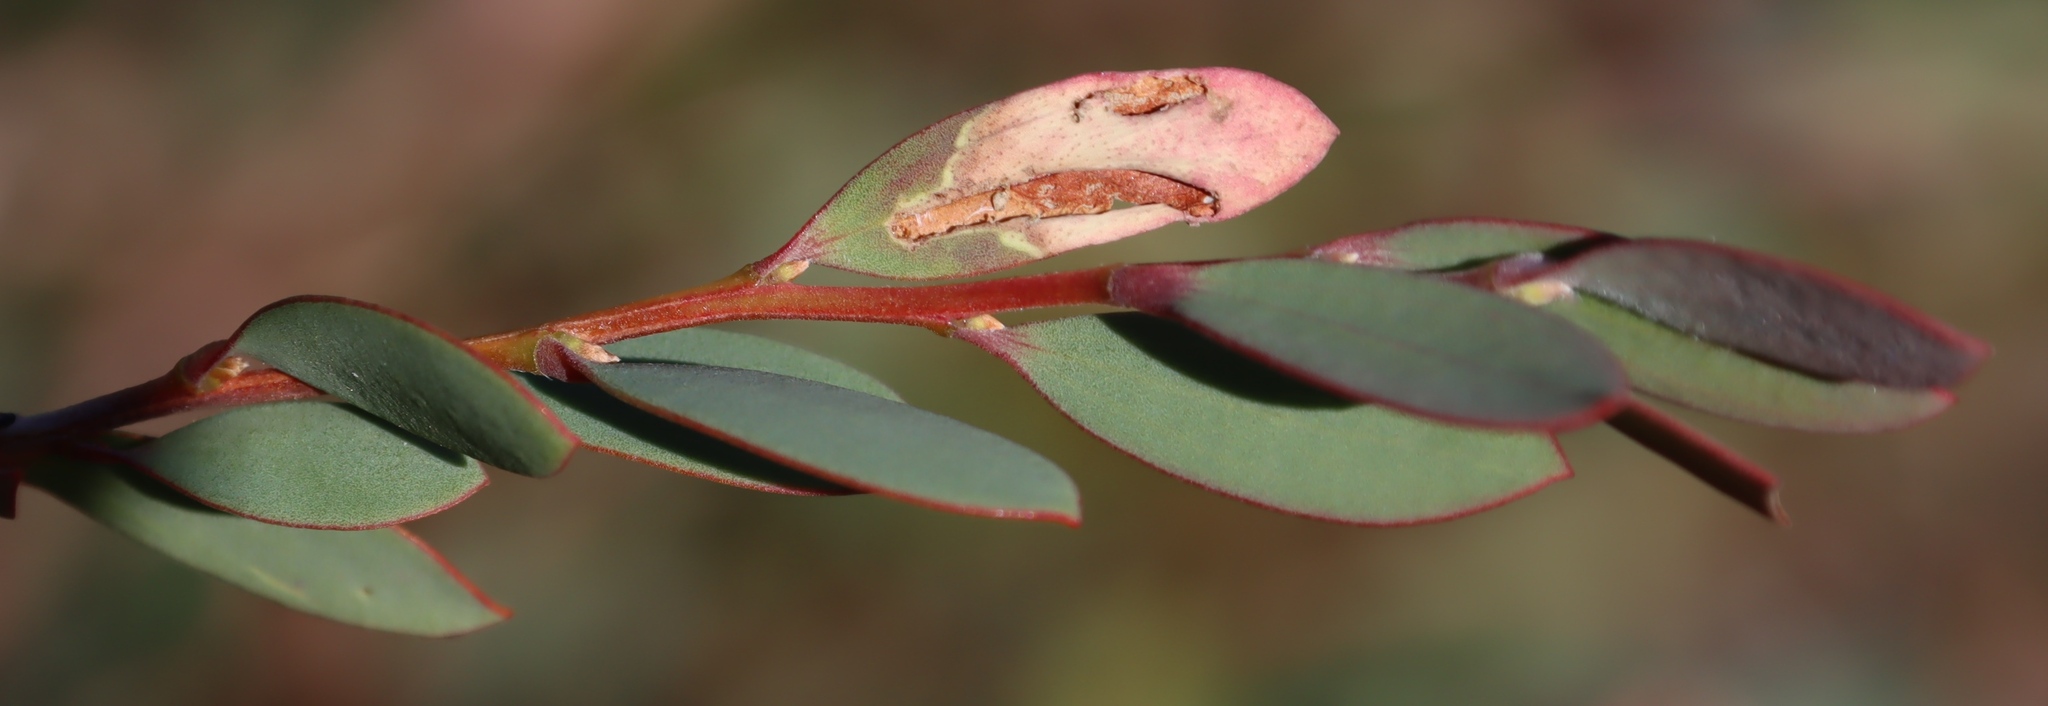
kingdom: Plantae
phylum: Tracheophyta
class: Magnoliopsida
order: Myrtales
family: Myrtaceae
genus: Leptospermum
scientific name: Leptospermum laevigatum
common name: Australian teatree
